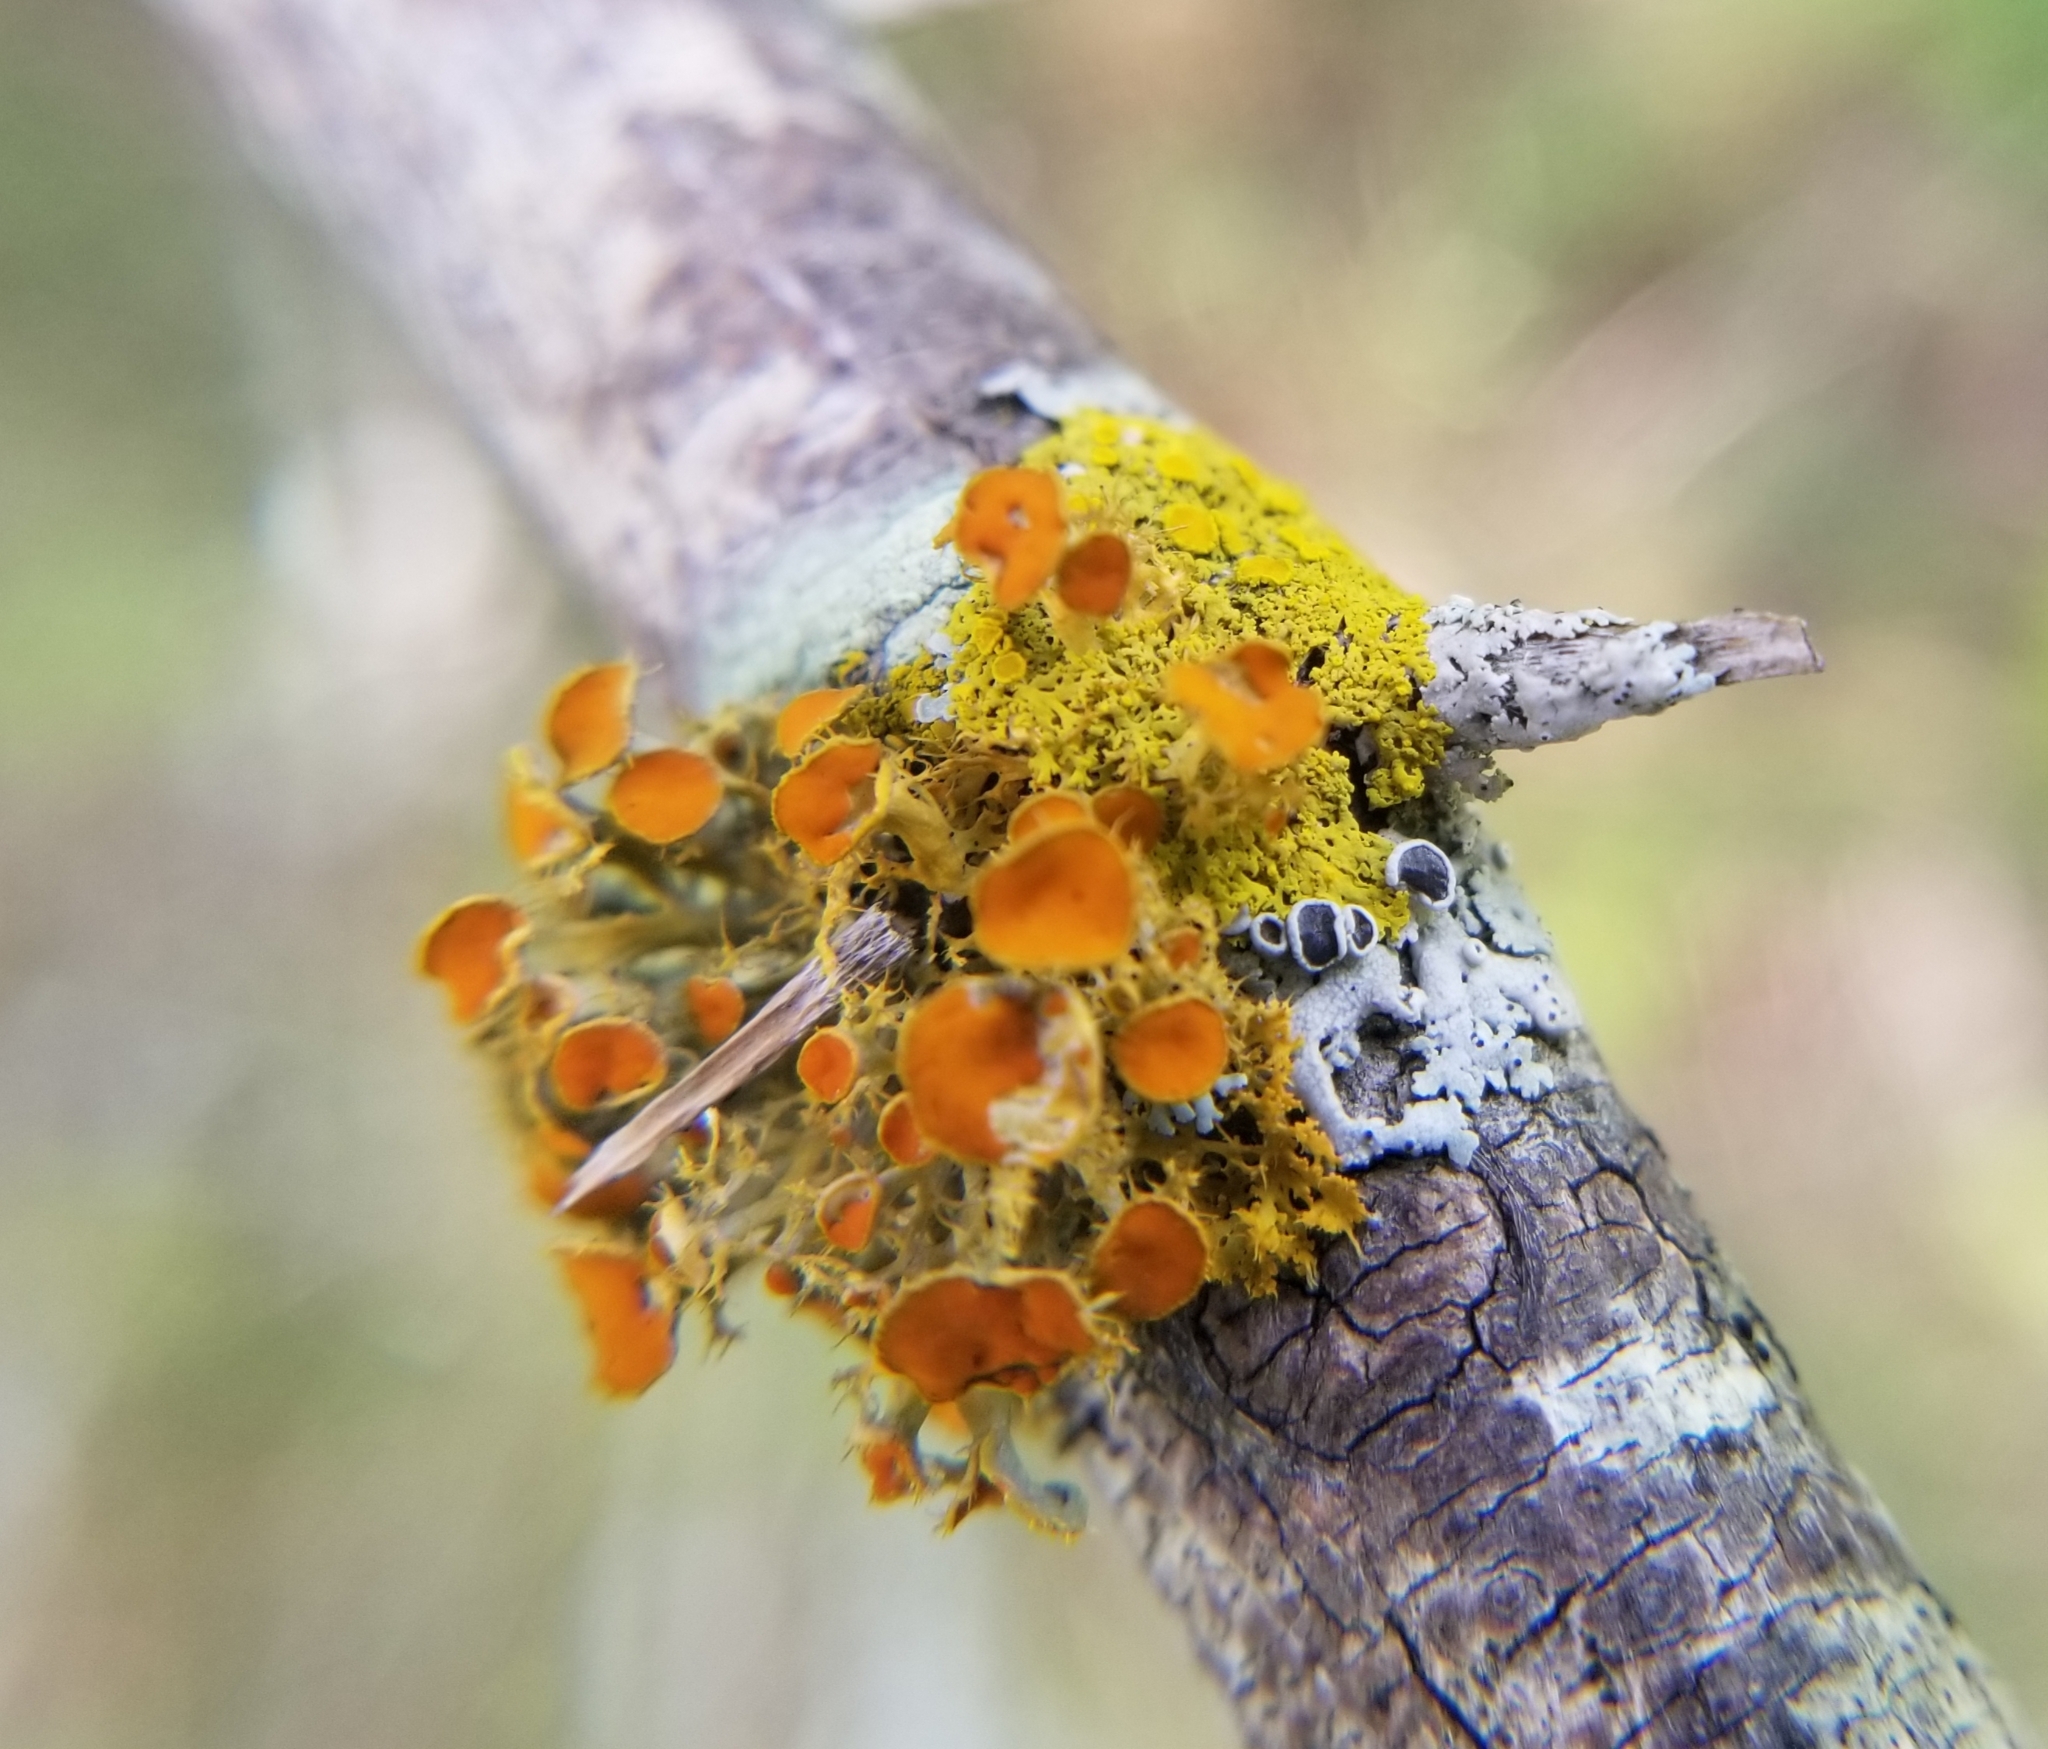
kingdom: Fungi
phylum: Ascomycota
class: Lecanoromycetes
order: Teloschistales
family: Teloschistaceae
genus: Niorma
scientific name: Niorma chrysophthalma
